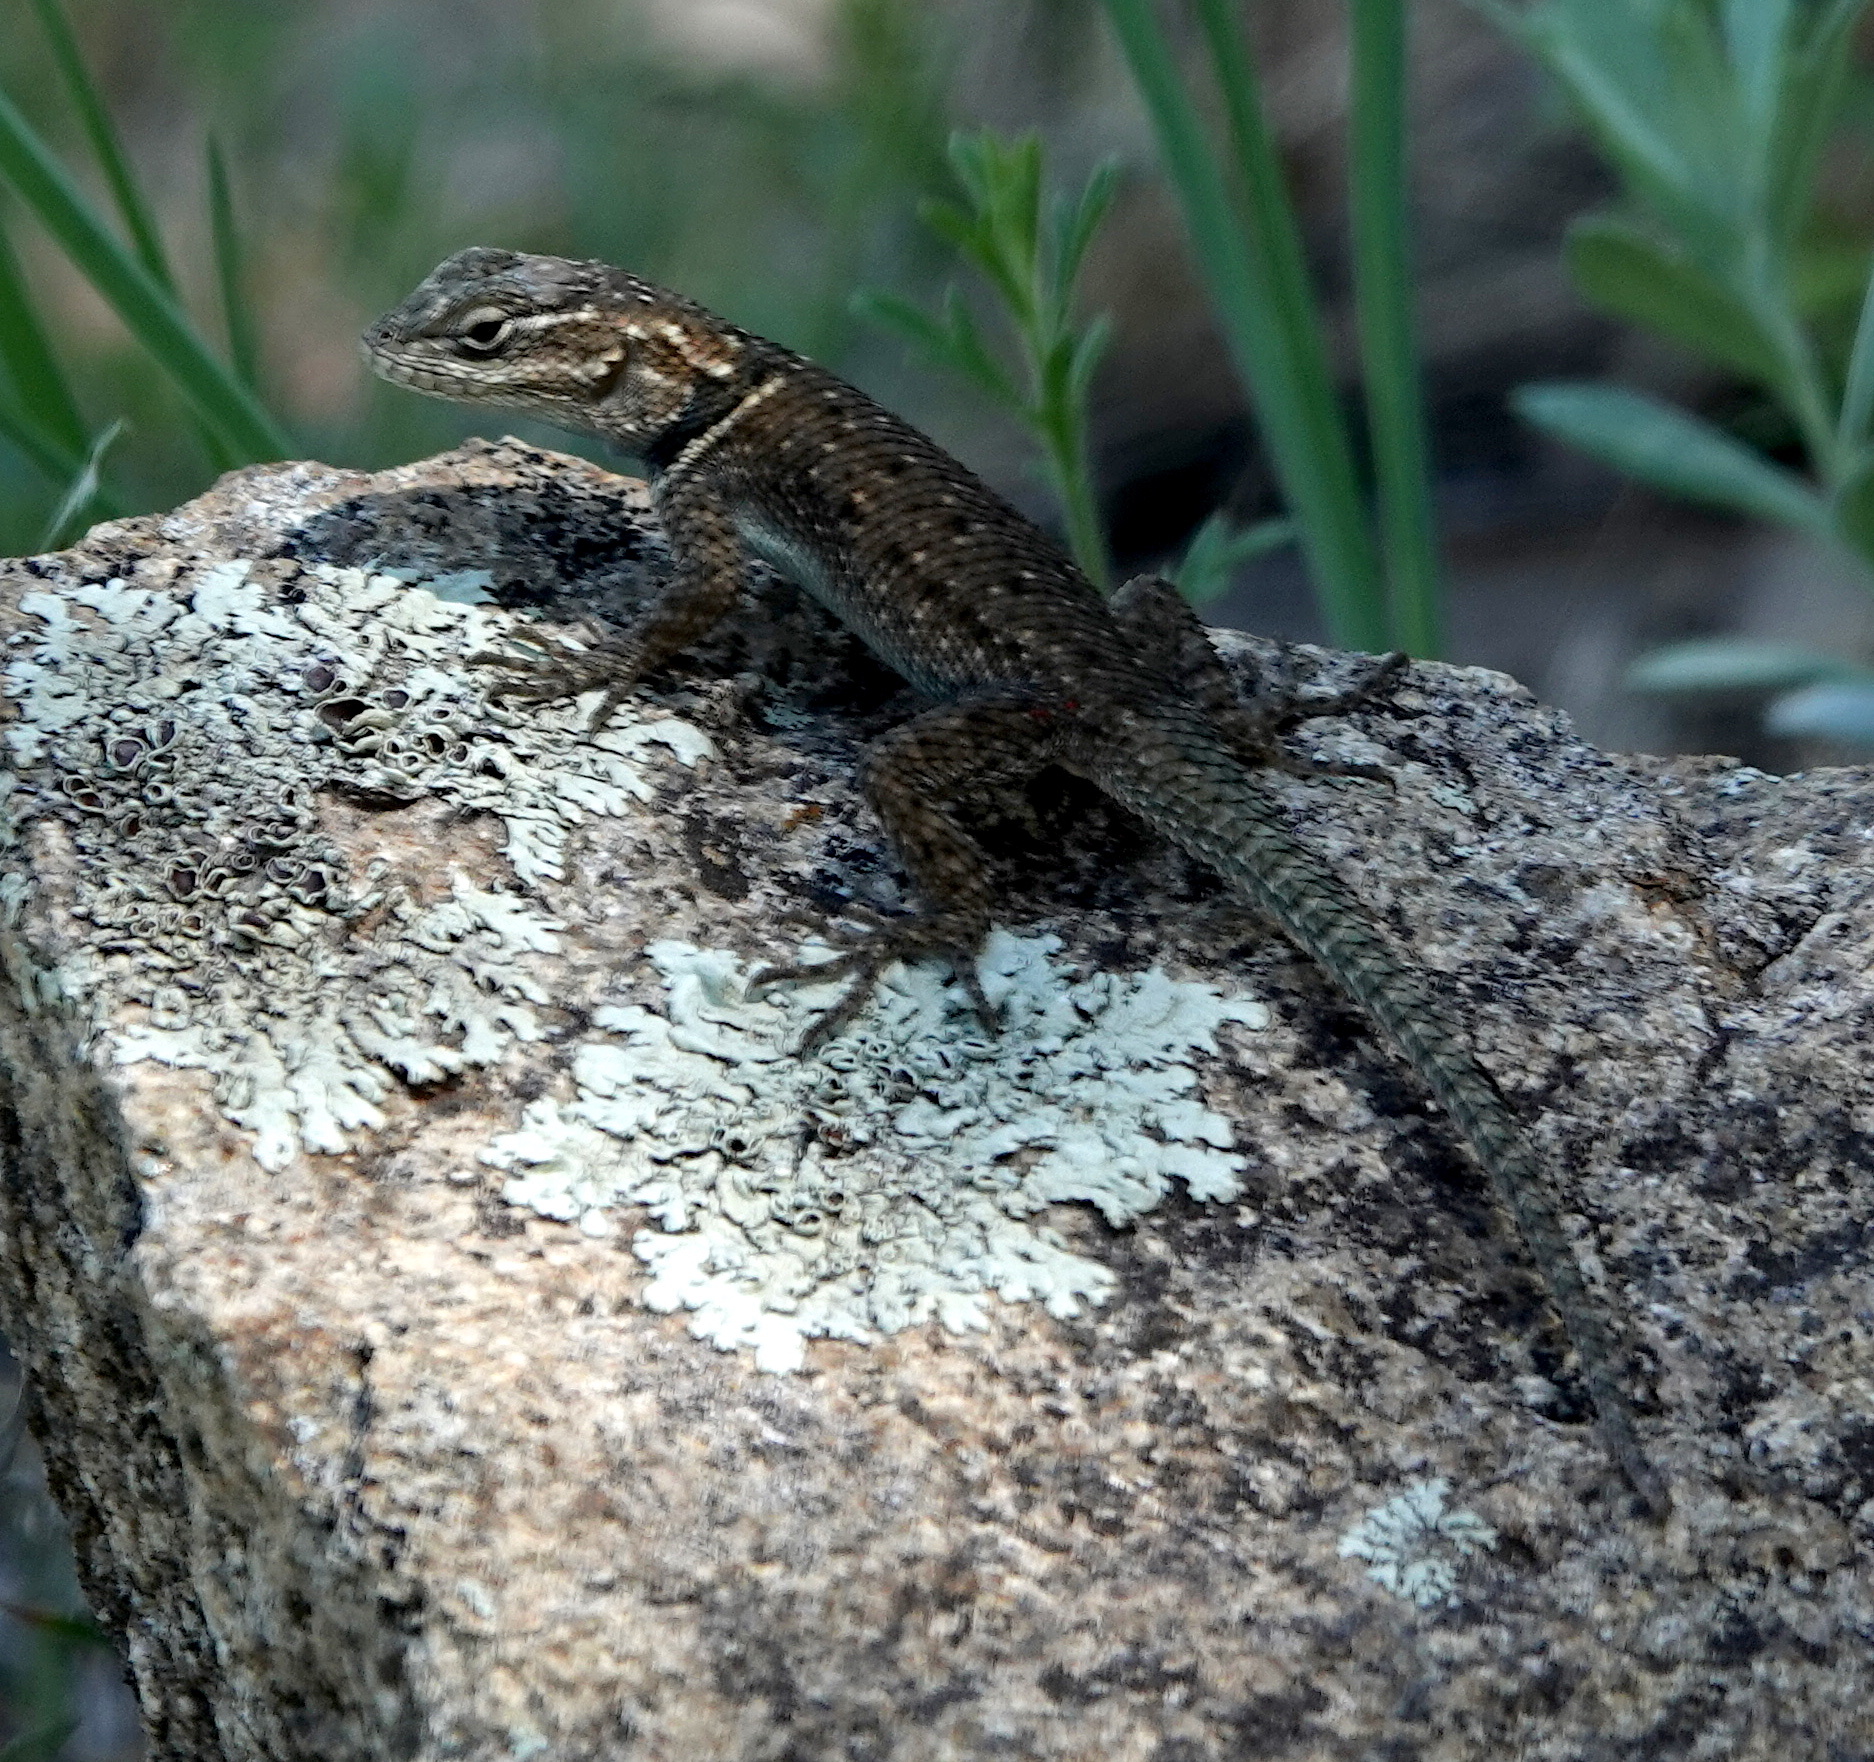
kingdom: Animalia
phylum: Chordata
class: Squamata
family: Phrynosomatidae
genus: Sceloporus
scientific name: Sceloporus jarrovii
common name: Yarrow's spiny lizard
